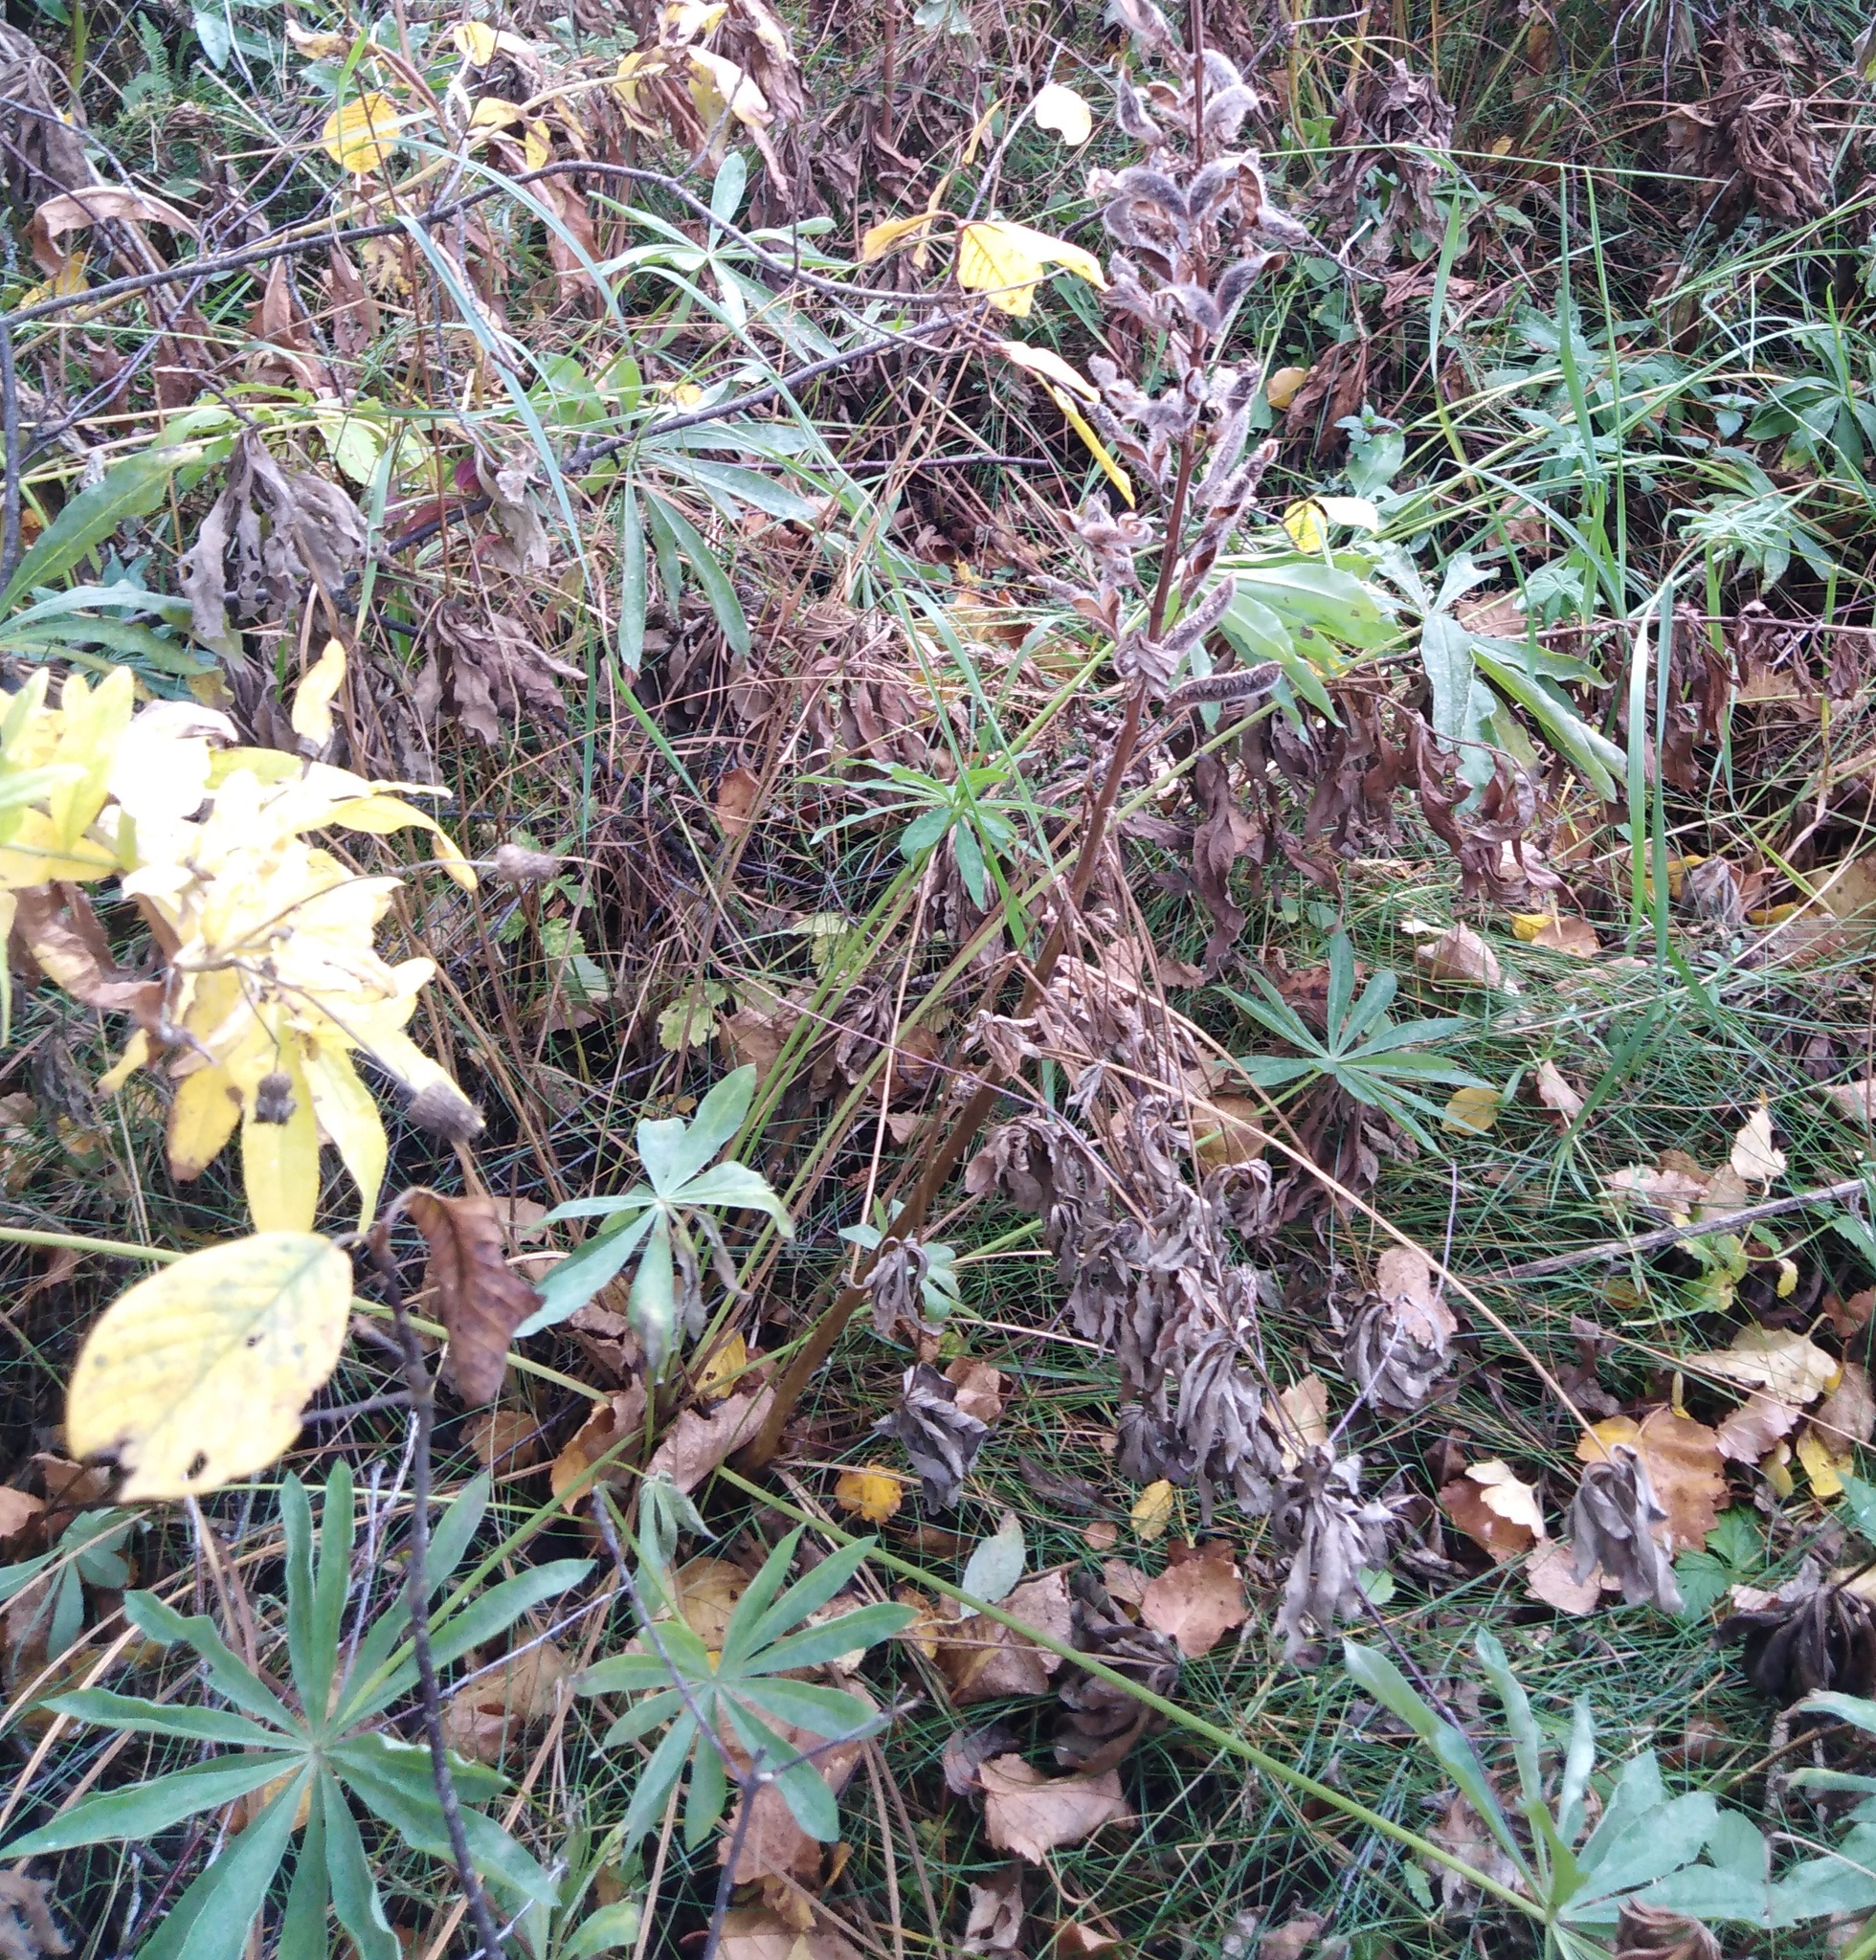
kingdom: Plantae
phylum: Tracheophyta
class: Magnoliopsida
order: Fabales
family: Fabaceae
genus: Lupinus
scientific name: Lupinus polyphyllus
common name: Garden lupin
